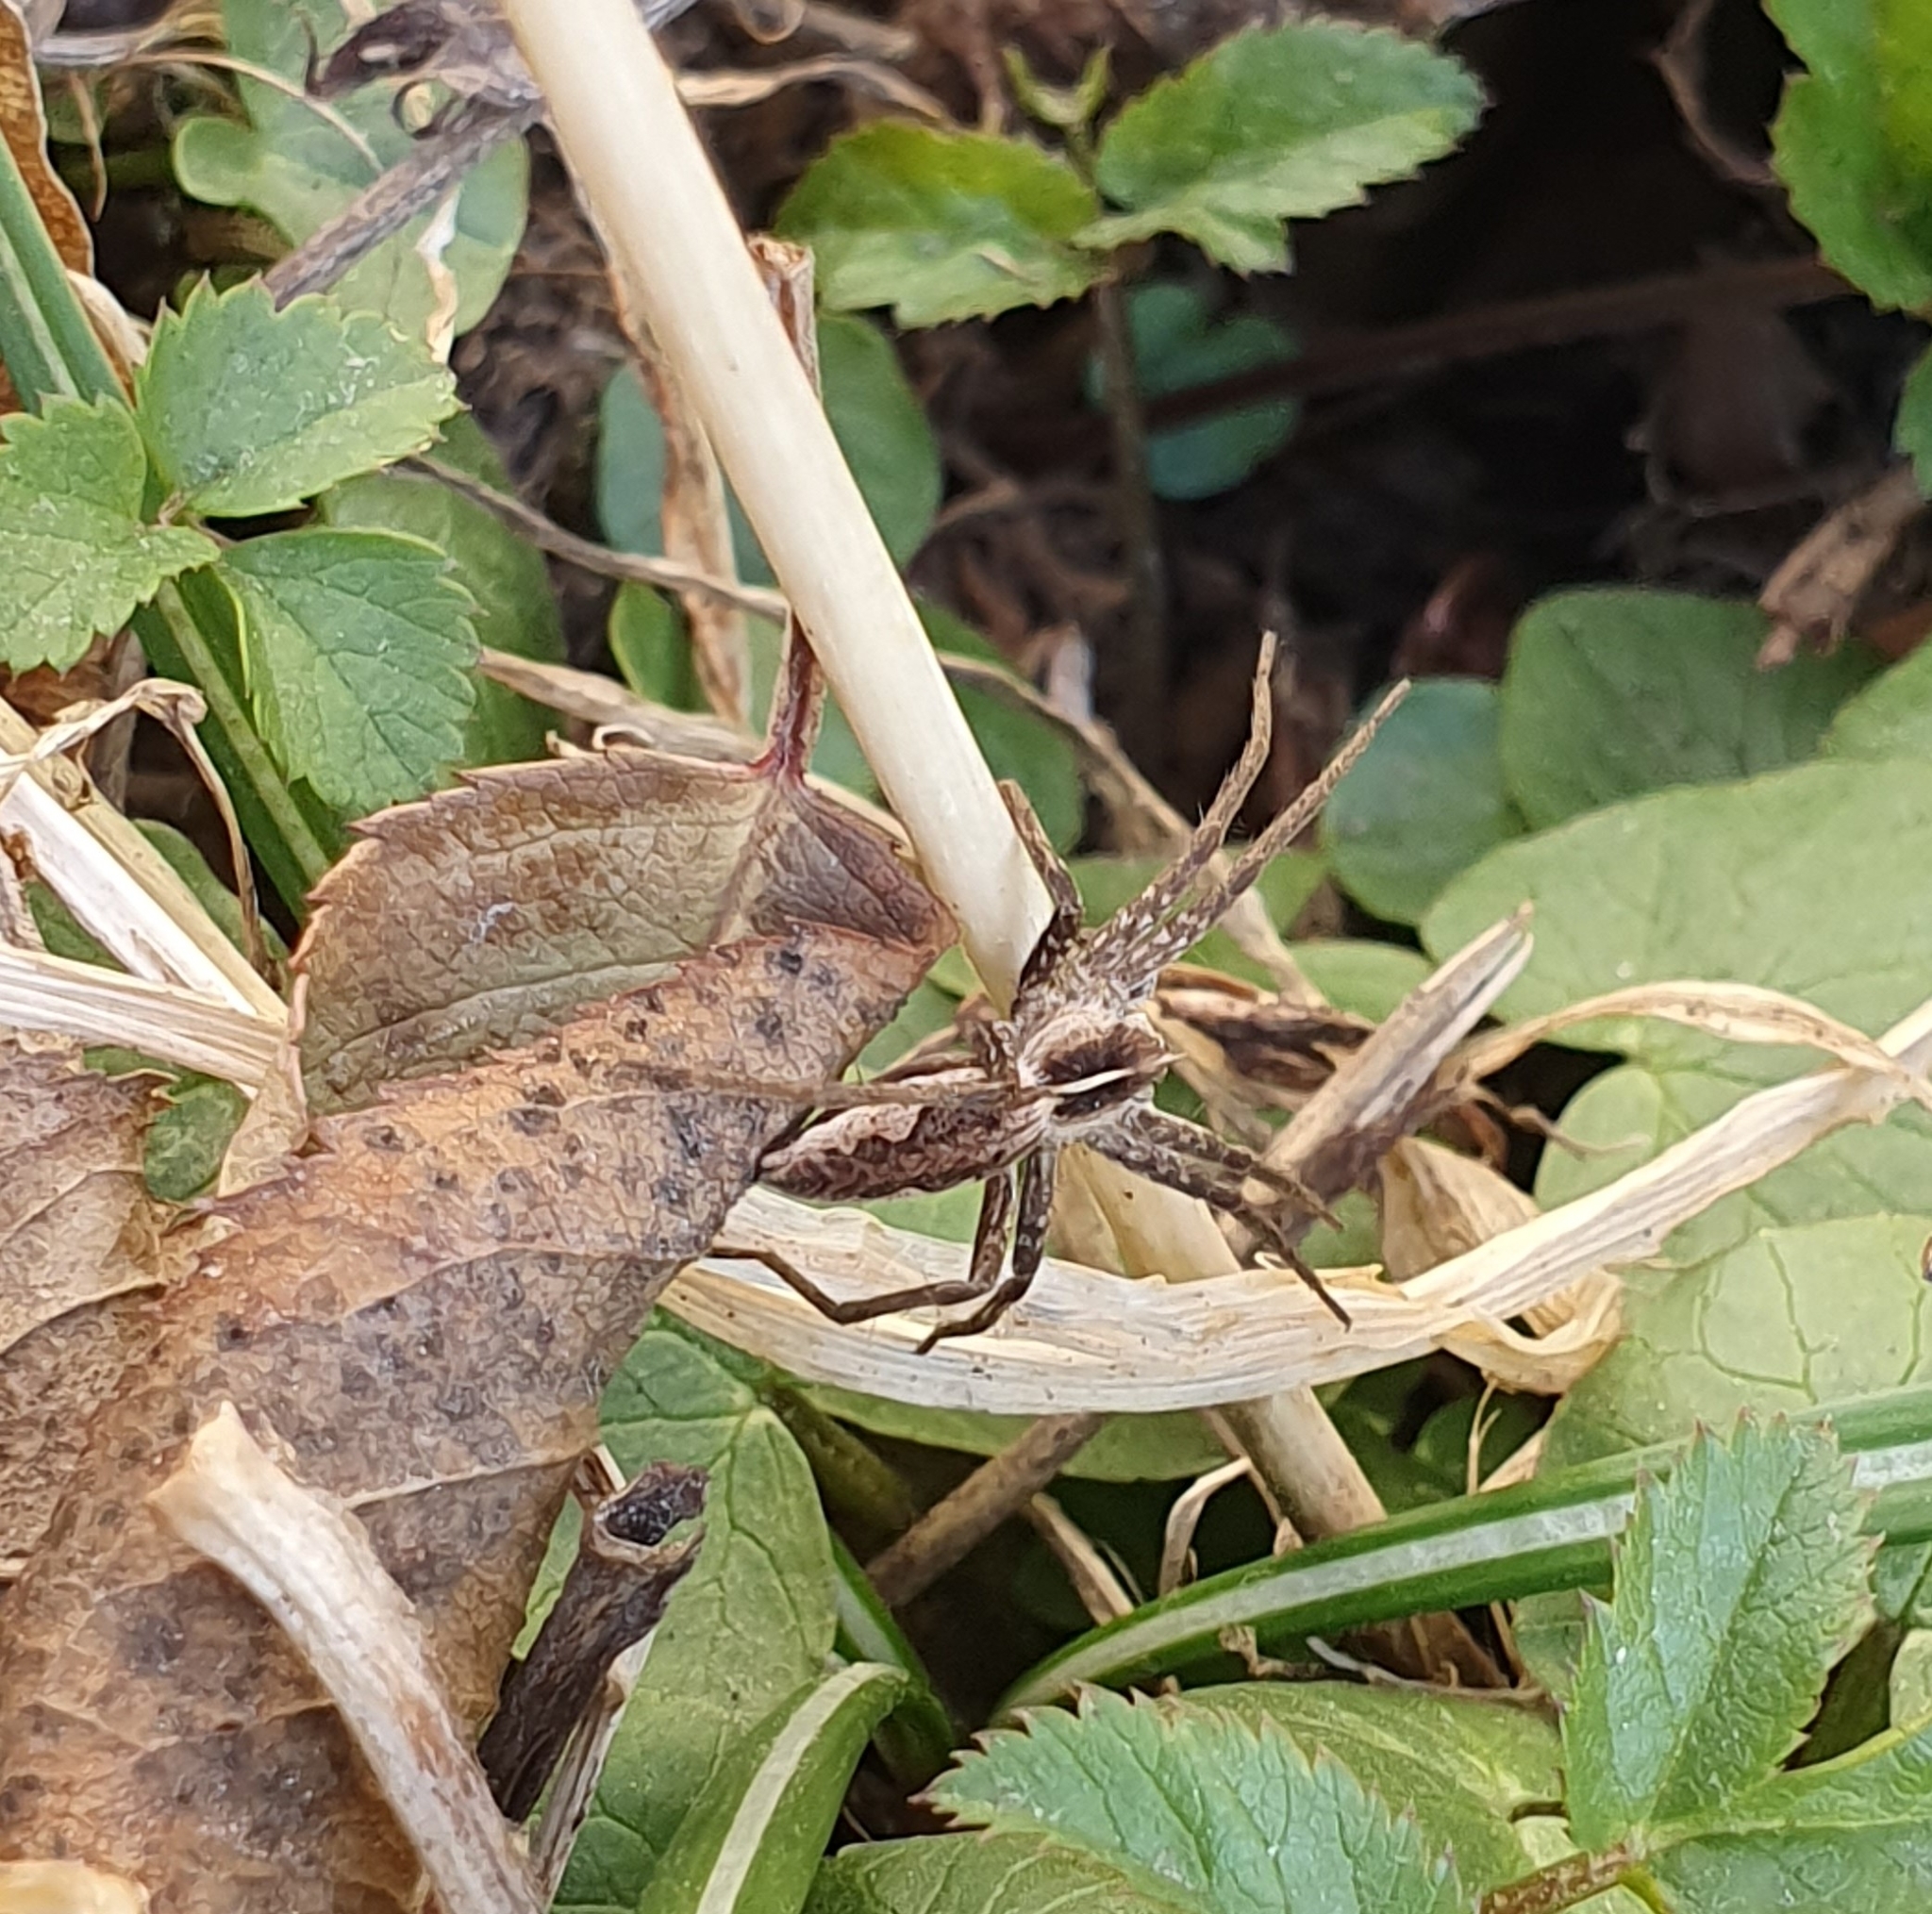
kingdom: Animalia
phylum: Arthropoda
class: Arachnida
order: Araneae
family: Pisauridae
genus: Pisaura
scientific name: Pisaura mirabilis
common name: Tent spider
